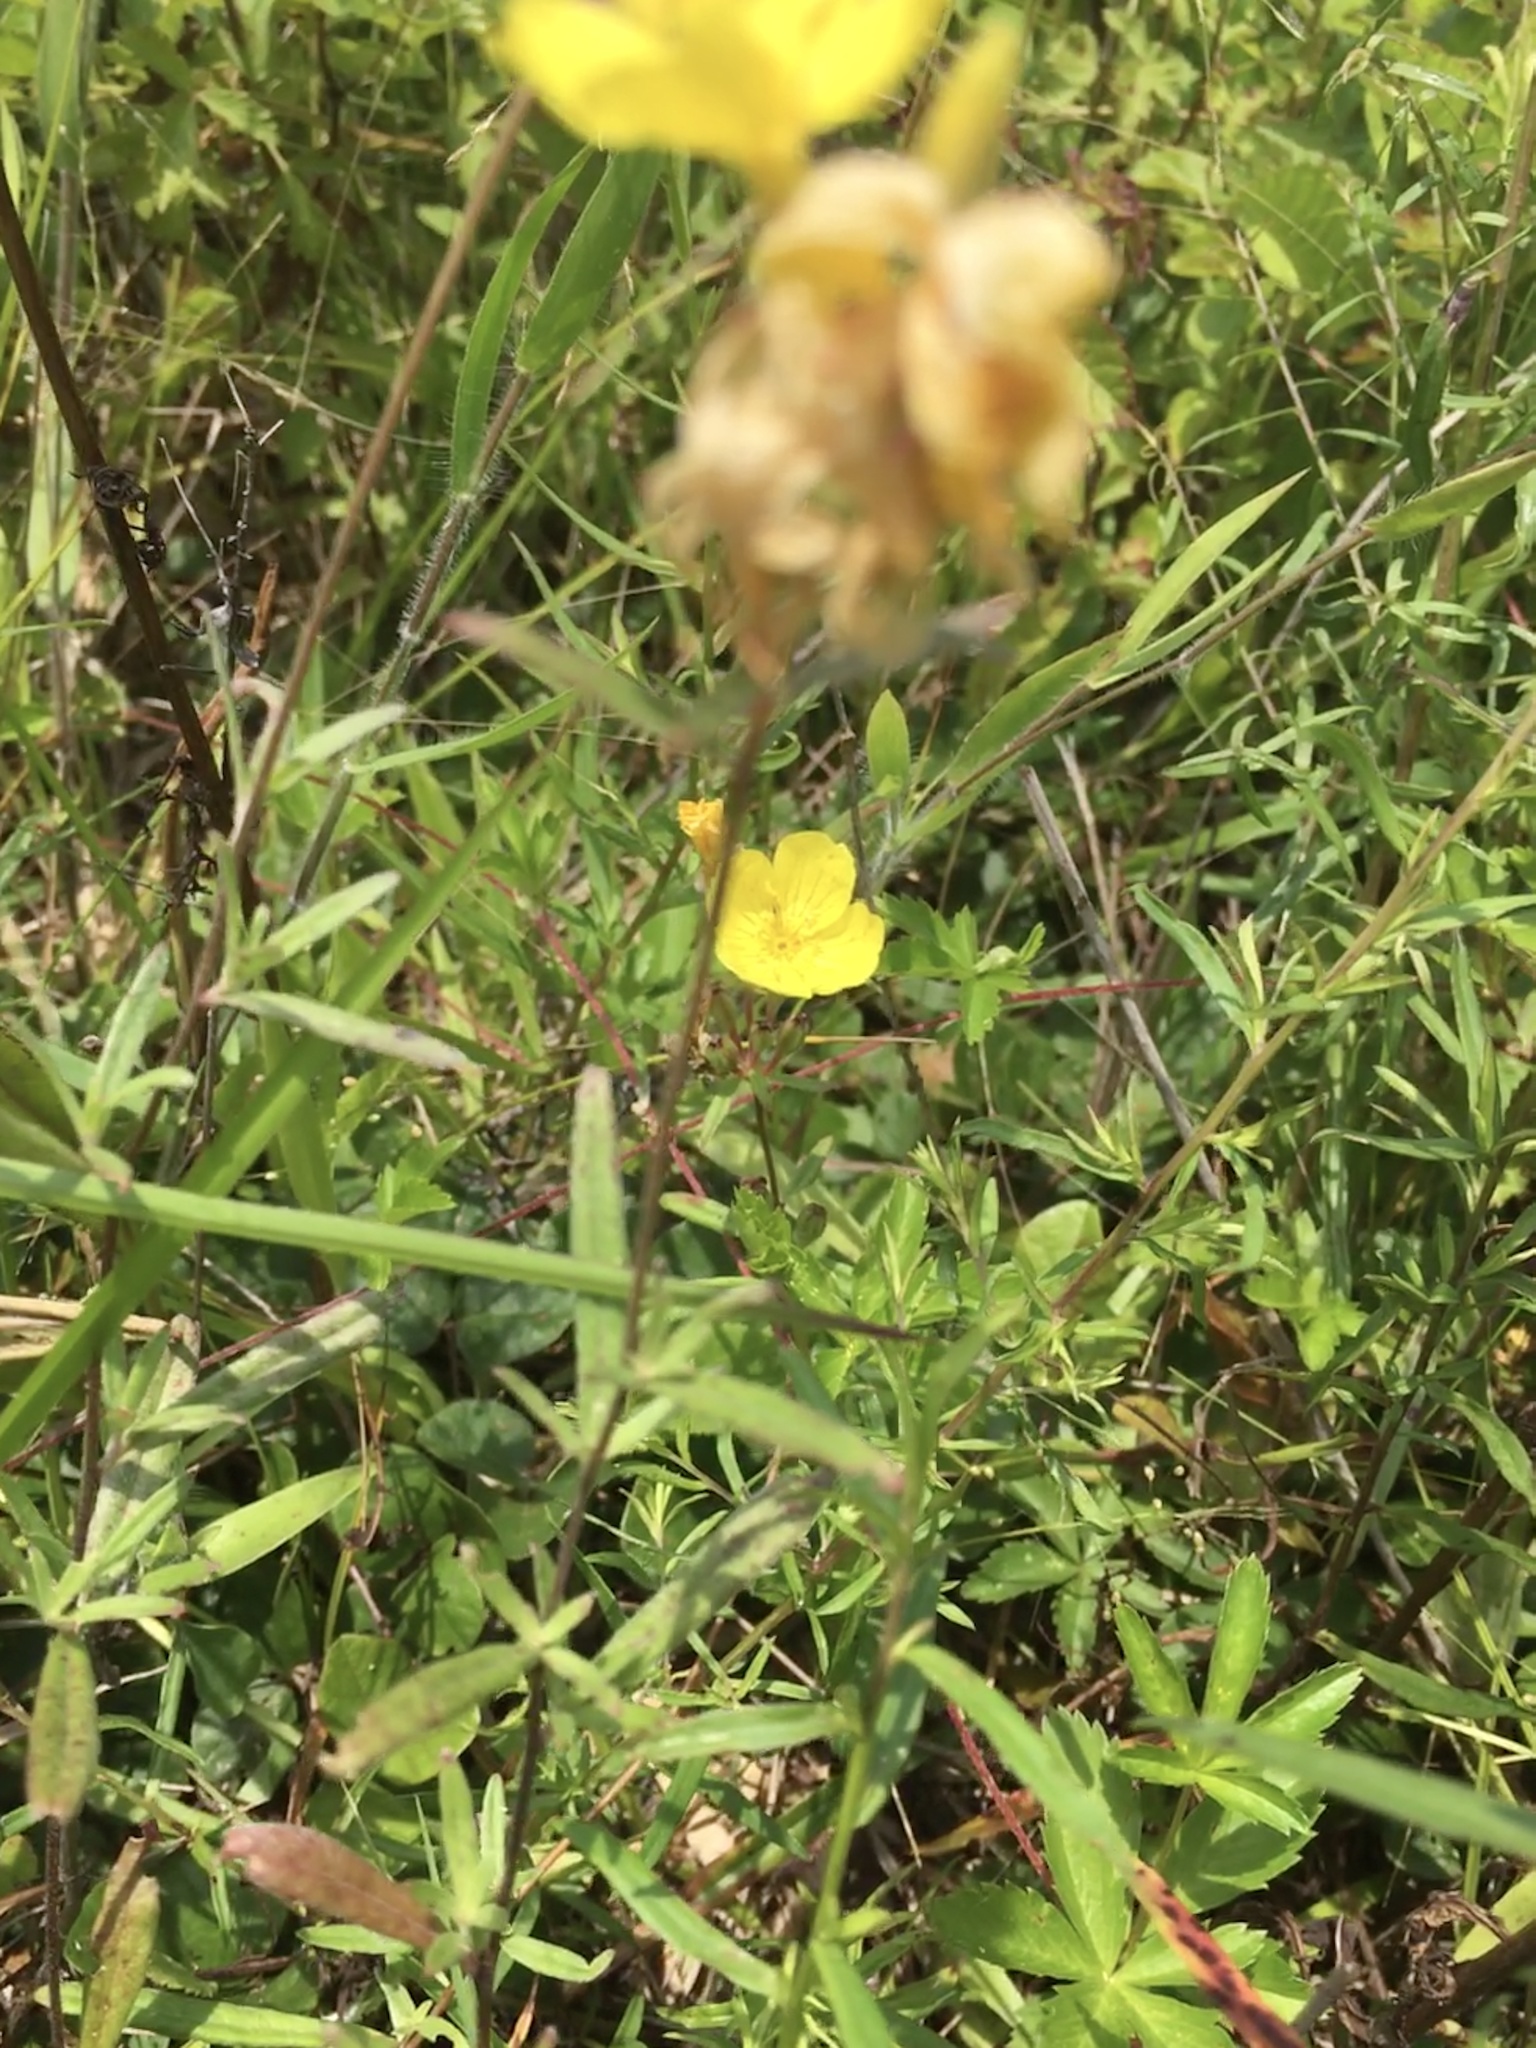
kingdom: Plantae
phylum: Tracheophyta
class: Magnoliopsida
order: Myrtales
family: Onagraceae
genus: Oenothera
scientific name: Oenothera fruticosa
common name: Southern sundrops
